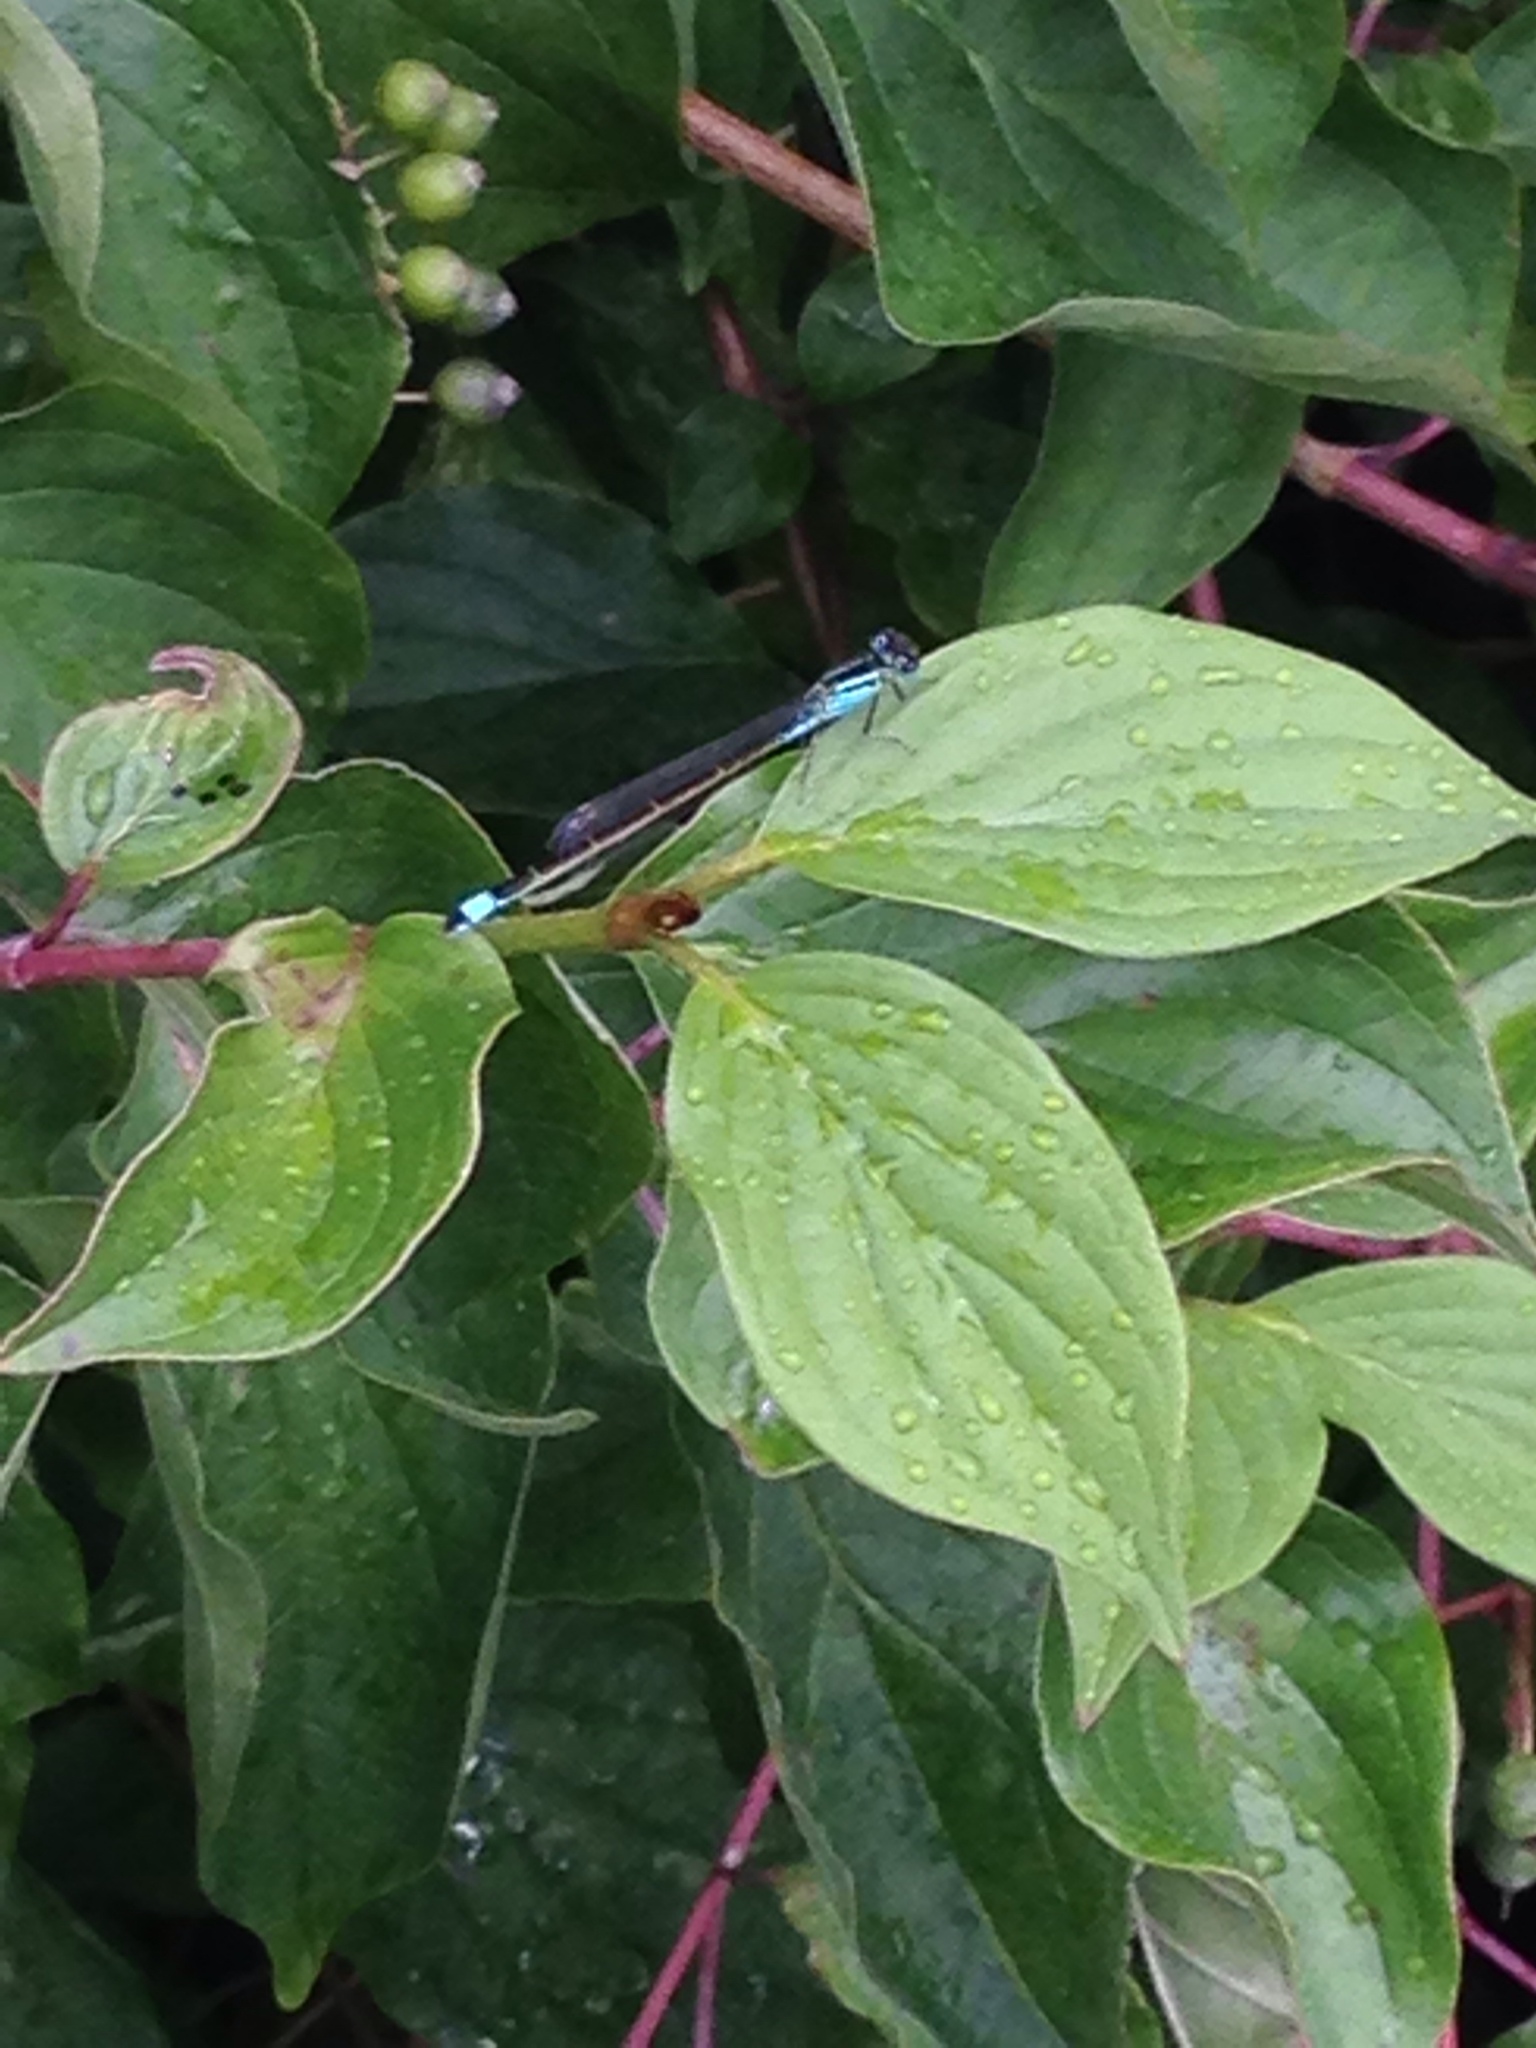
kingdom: Animalia
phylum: Arthropoda
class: Insecta
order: Odonata
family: Coenagrionidae
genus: Ischnura
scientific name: Ischnura elegans
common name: Blue-tailed damselfly
